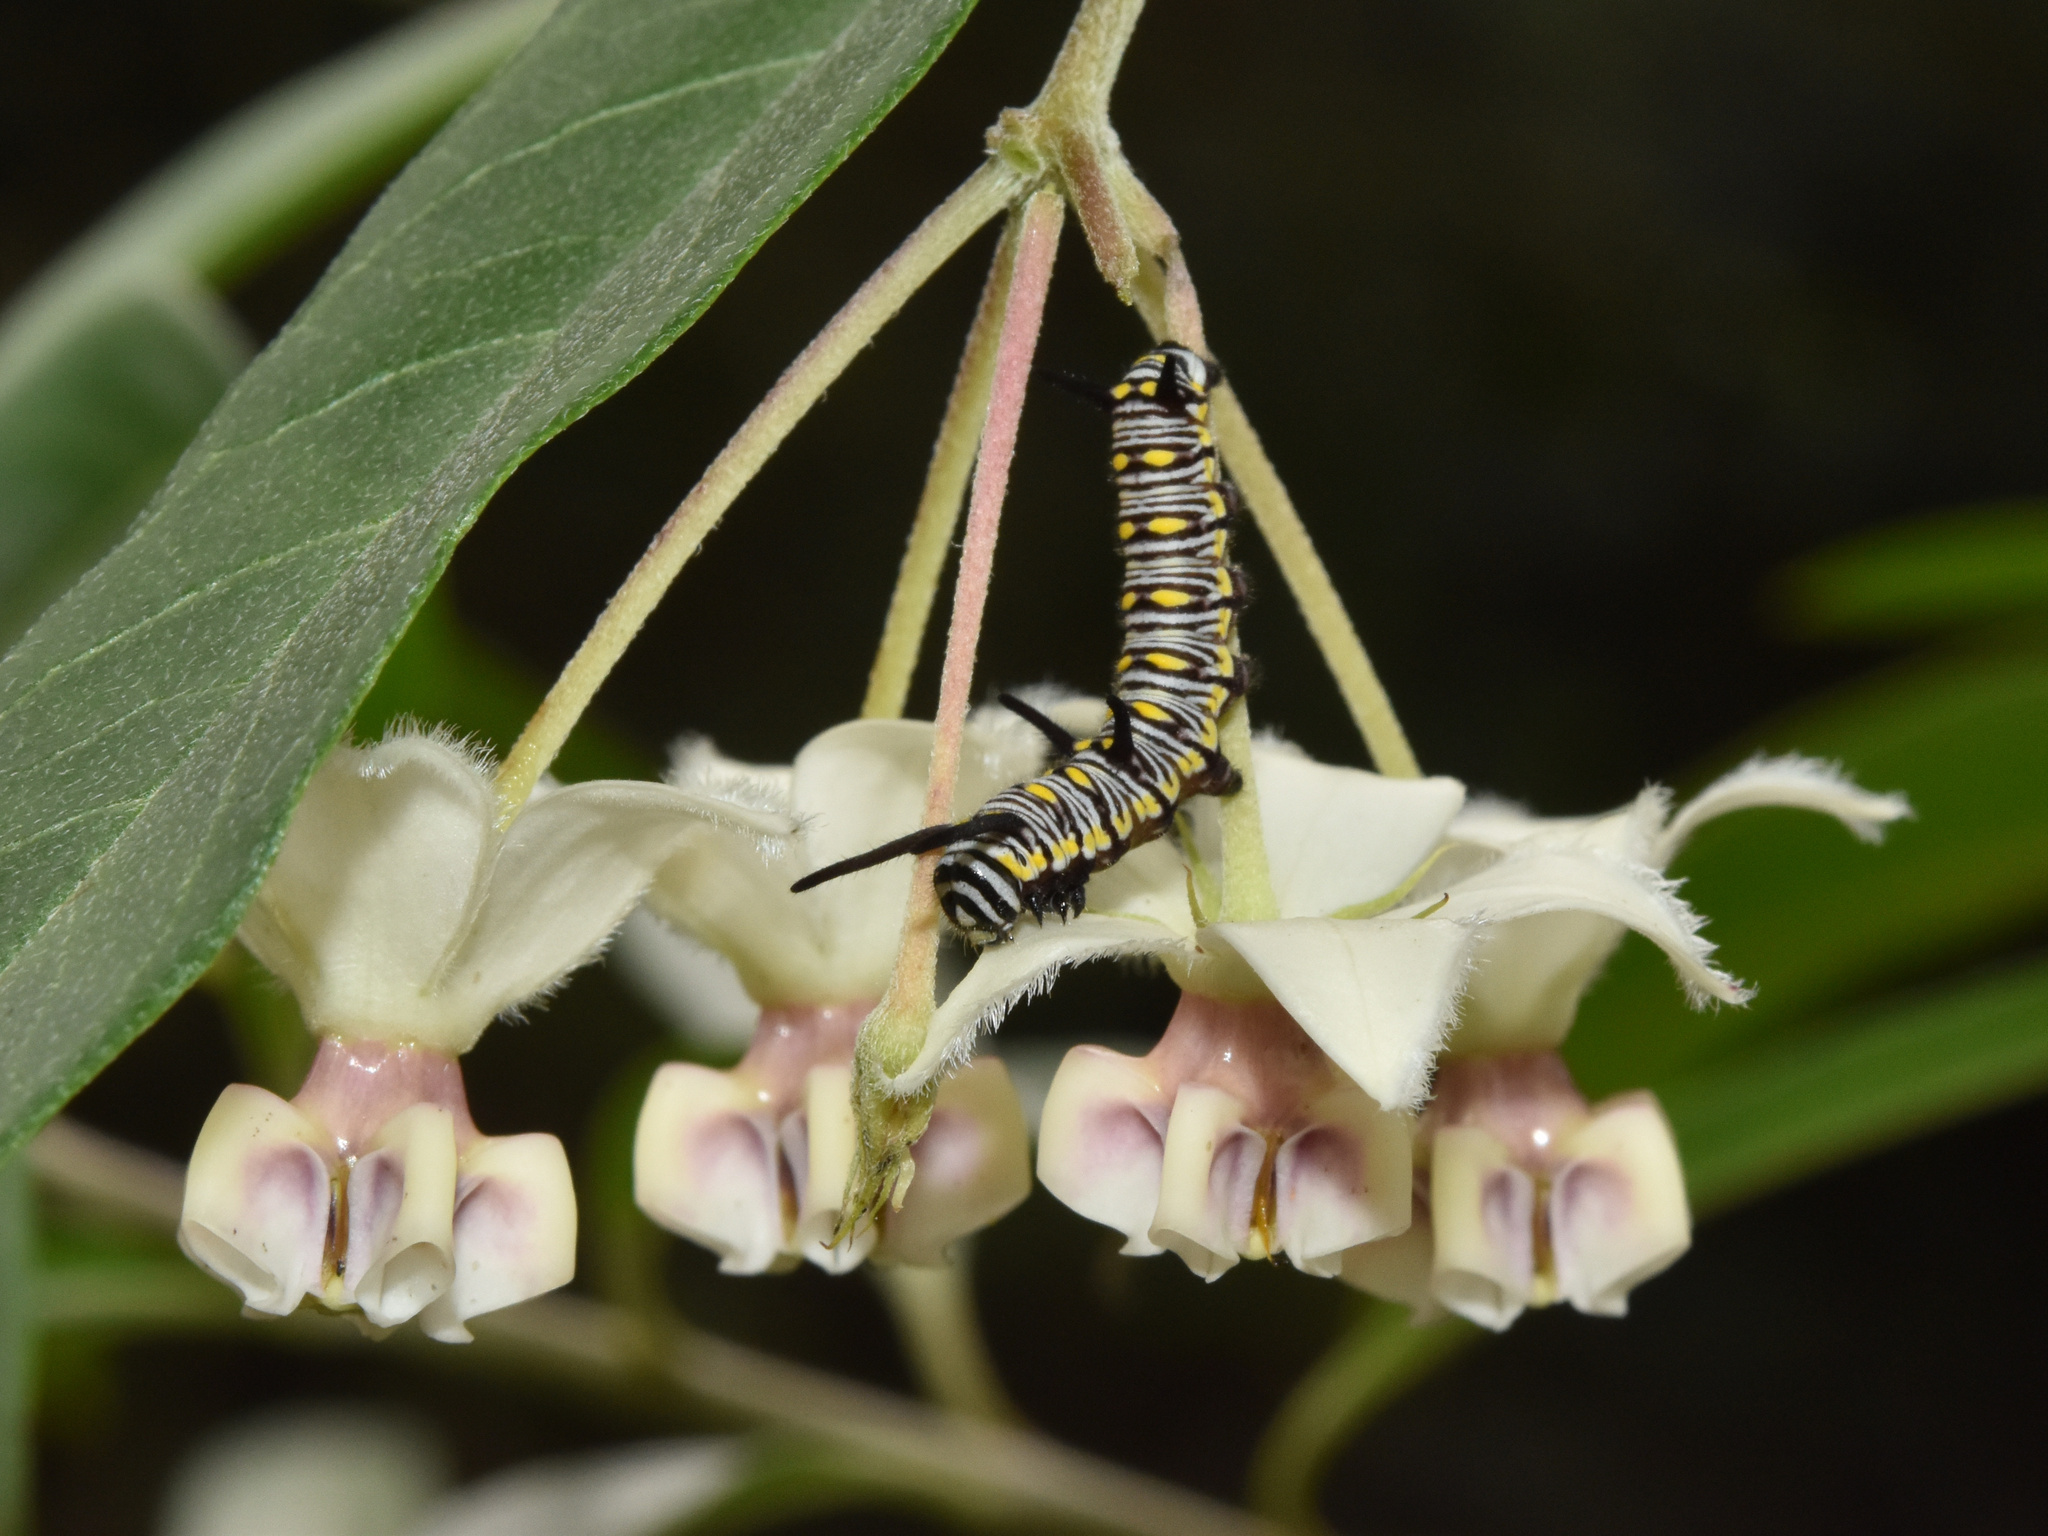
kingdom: Animalia
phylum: Arthropoda
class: Insecta
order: Lepidoptera
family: Nymphalidae
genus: Danaus
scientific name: Danaus chrysippus
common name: Plain tiger
